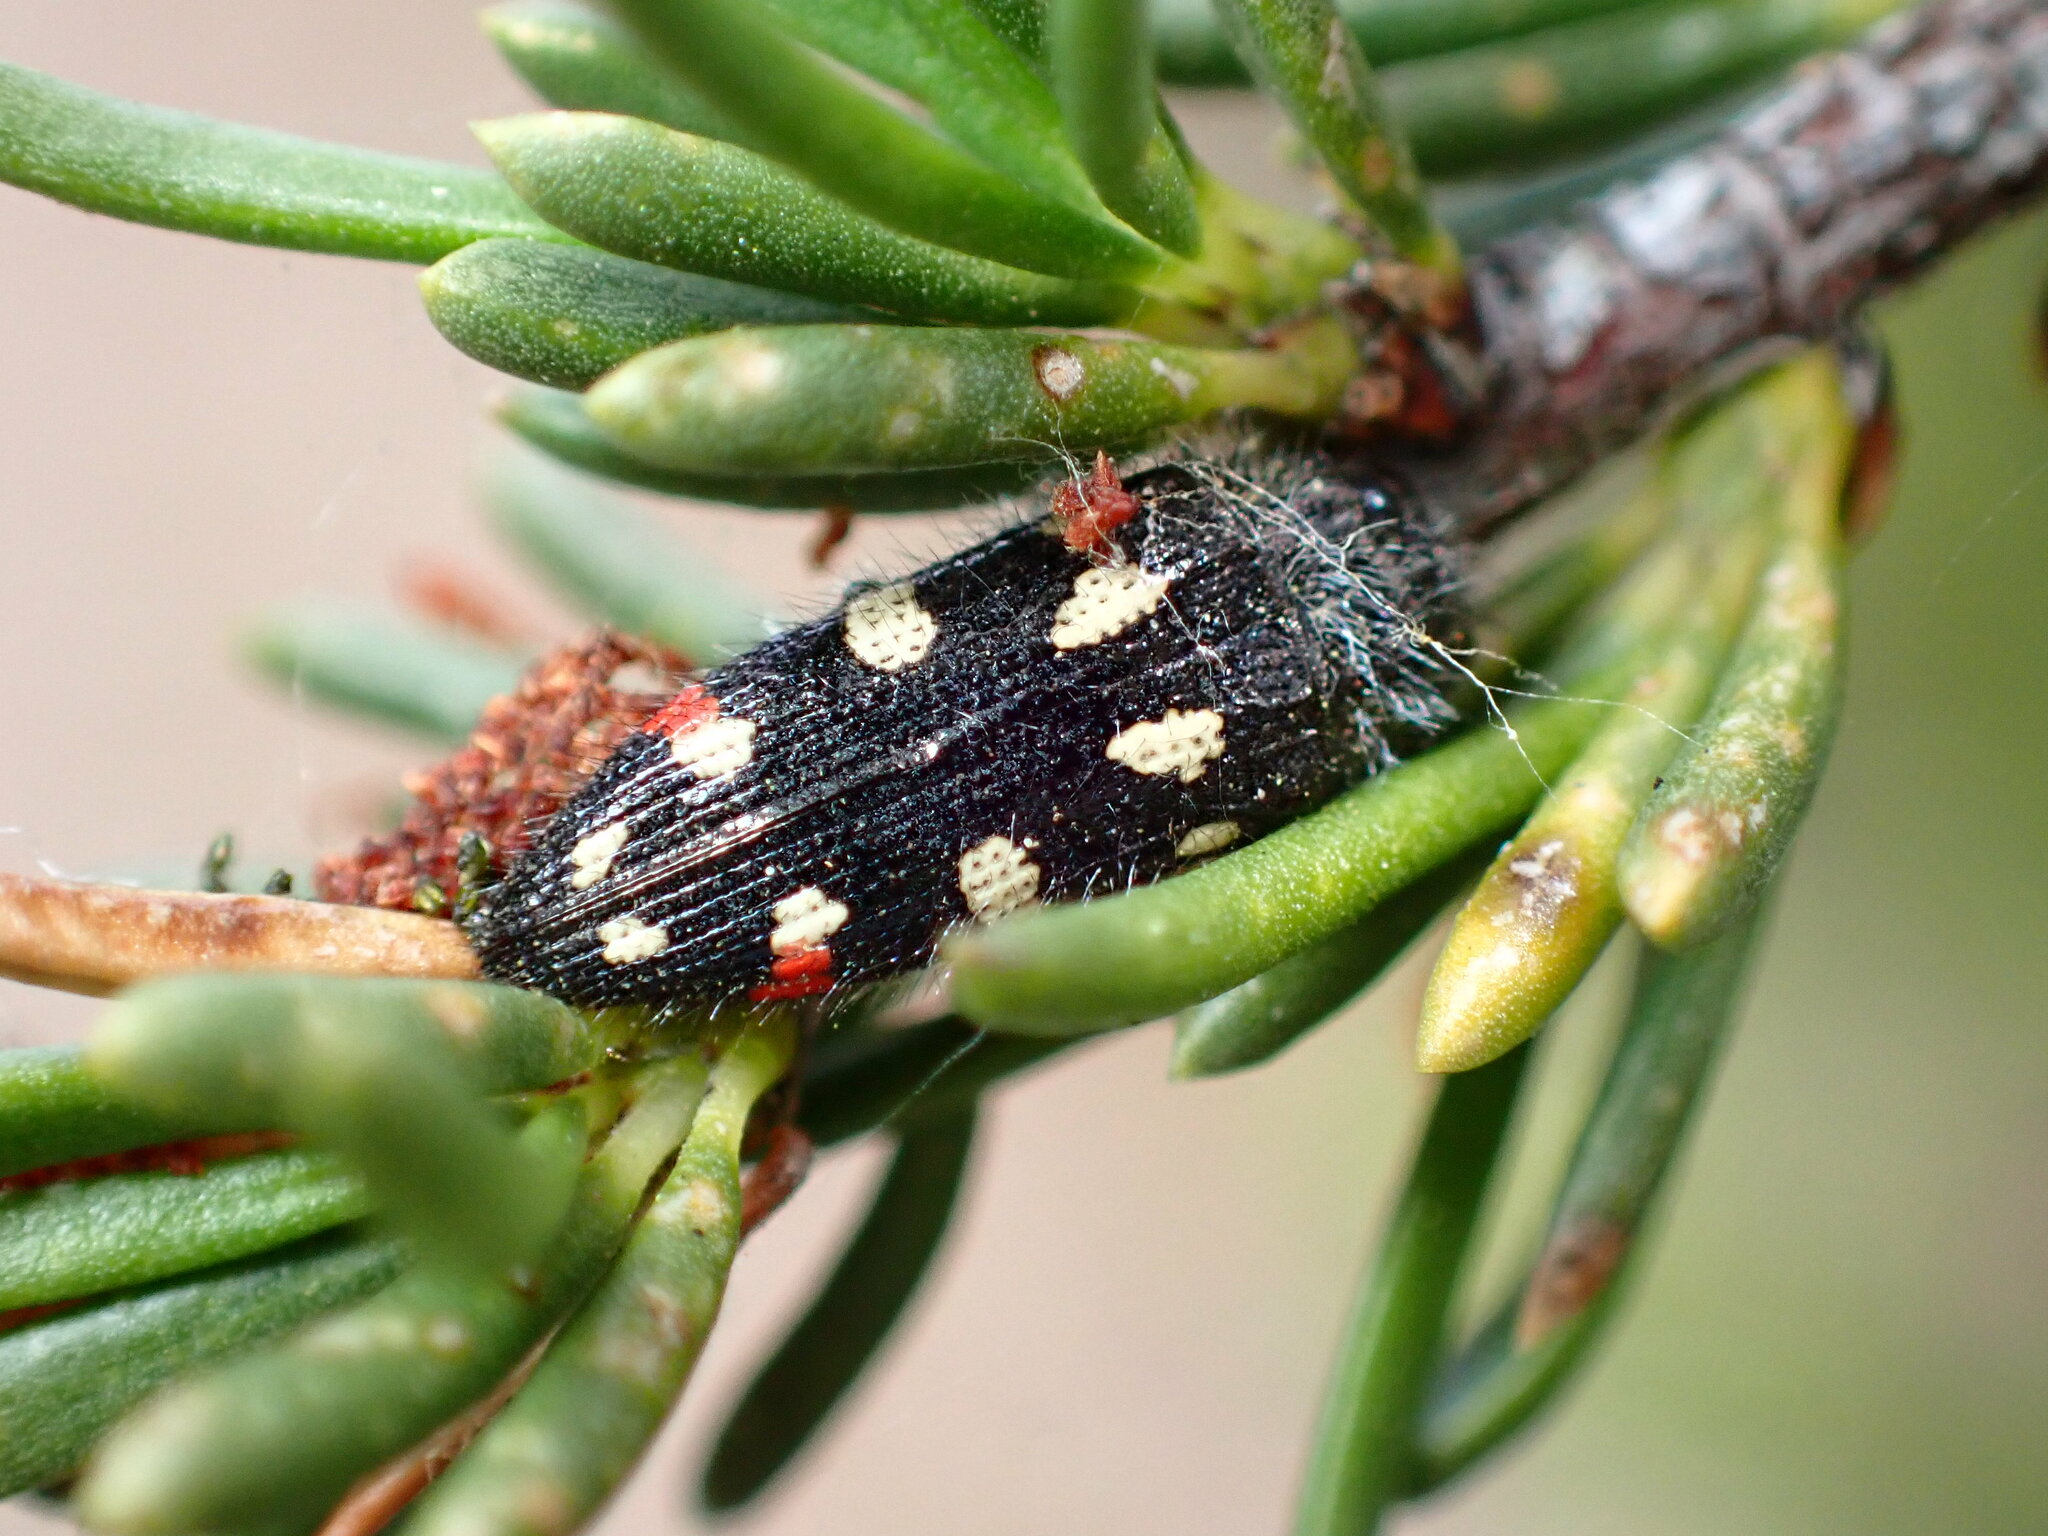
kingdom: Animalia
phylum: Arthropoda
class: Insecta
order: Coleoptera
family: Buprestidae
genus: Acmaeodera
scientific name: Acmaeodera adenostomae
